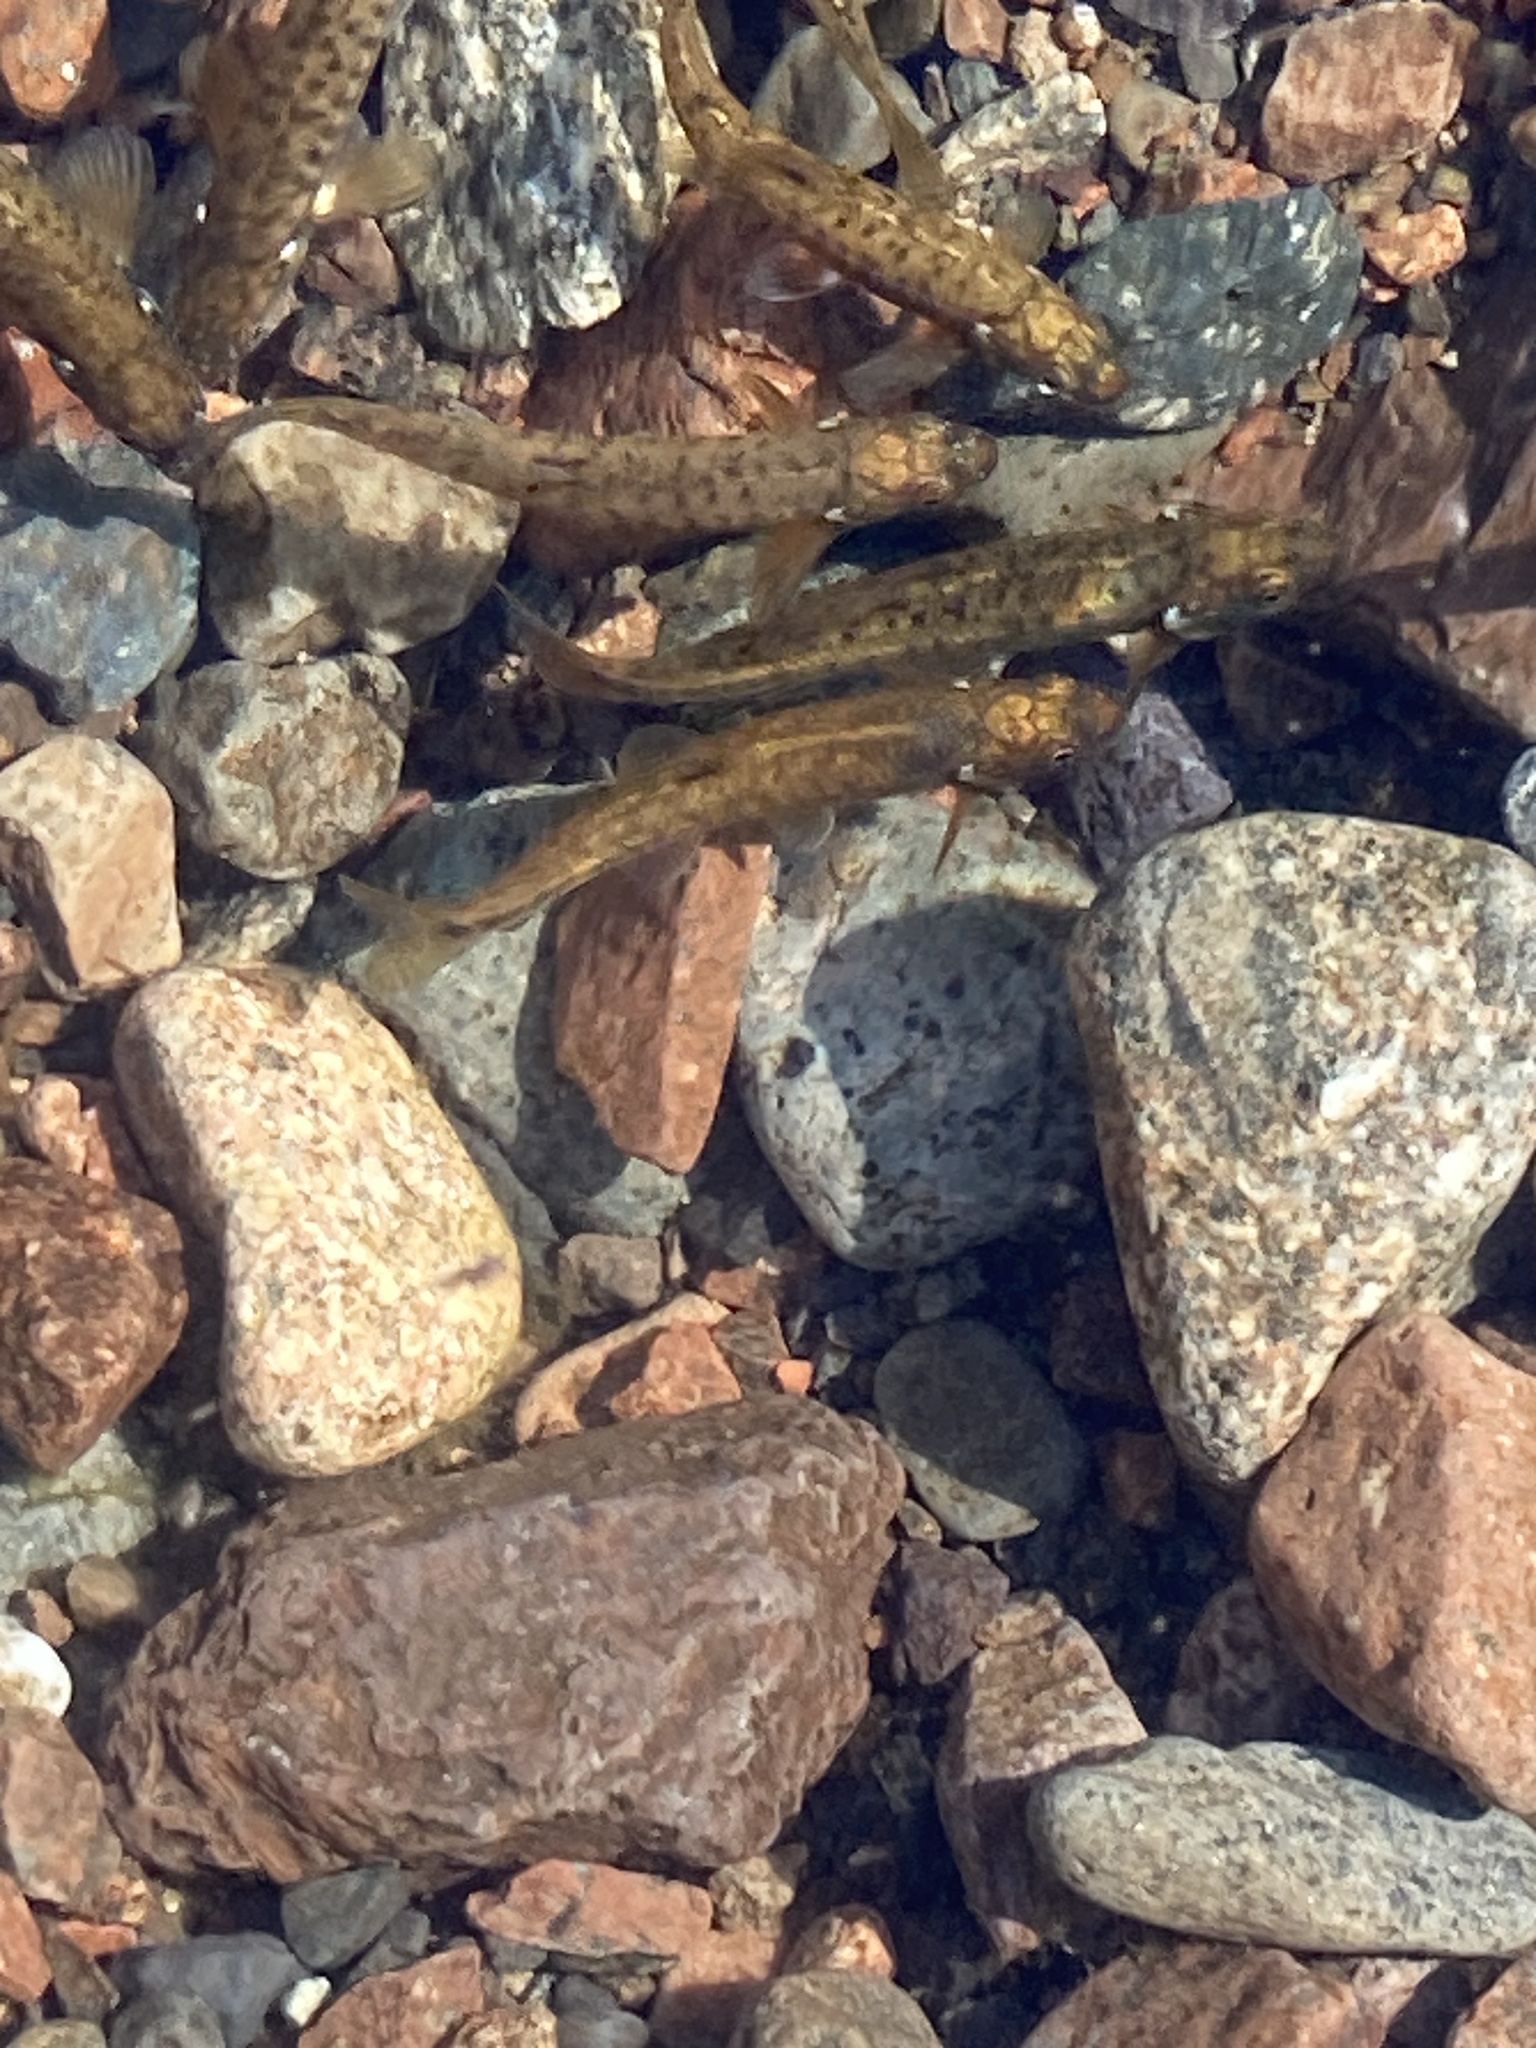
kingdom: Animalia
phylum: Chordata
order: Cypriniformes
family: Cyprinidae
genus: Phoxinus
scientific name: Phoxinus phoxinus
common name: Minnow
